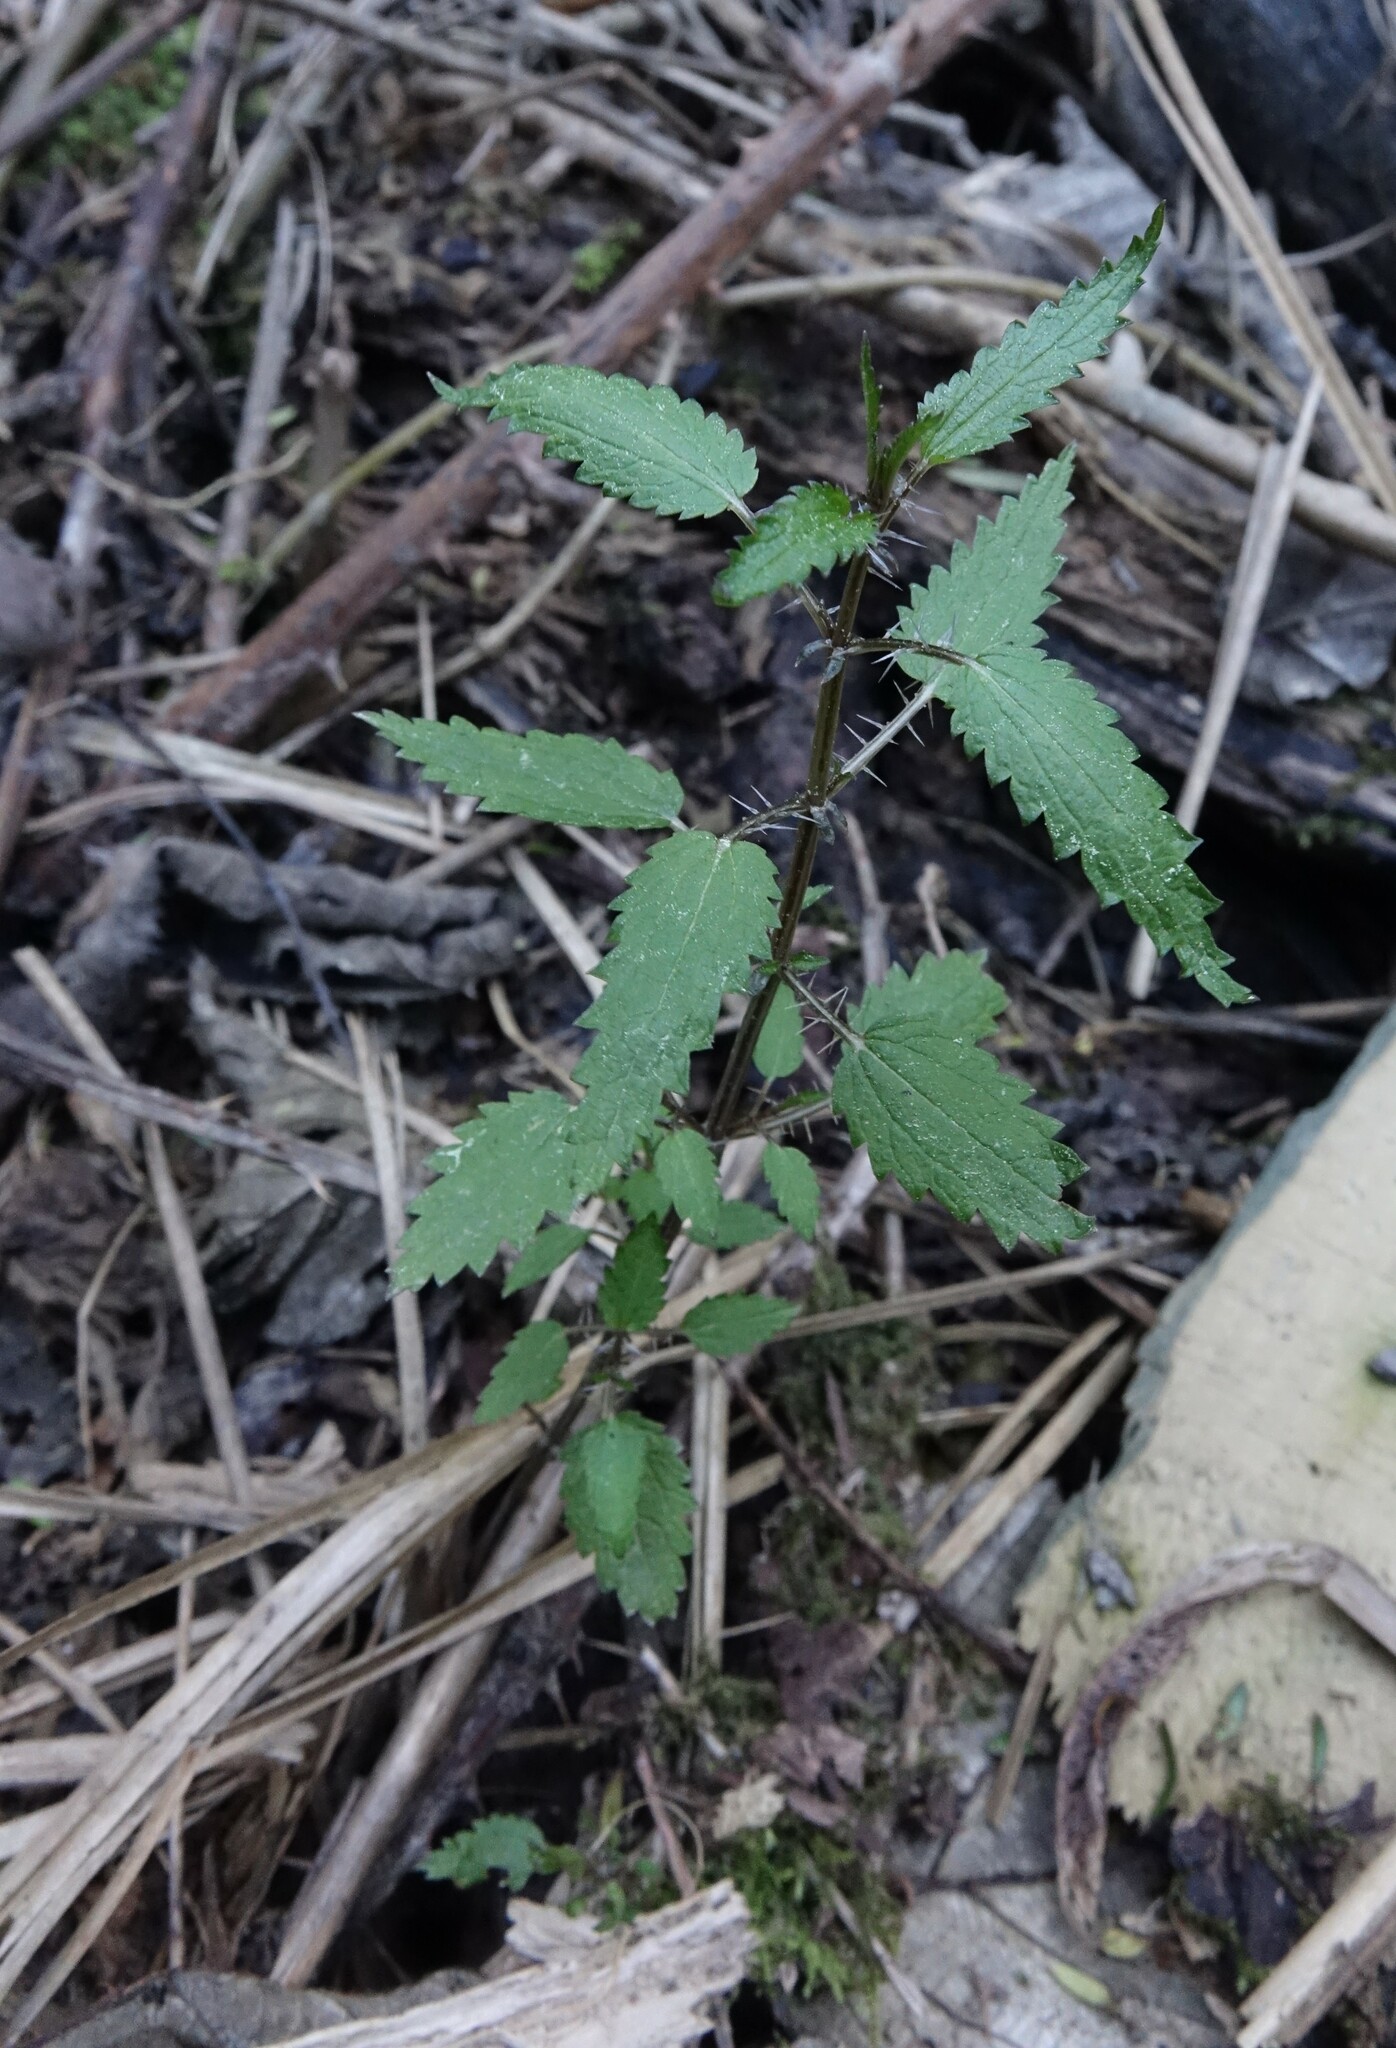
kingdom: Plantae
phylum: Tracheophyta
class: Magnoliopsida
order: Rosales
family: Urticaceae
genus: Urtica
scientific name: Urtica perconfusa
